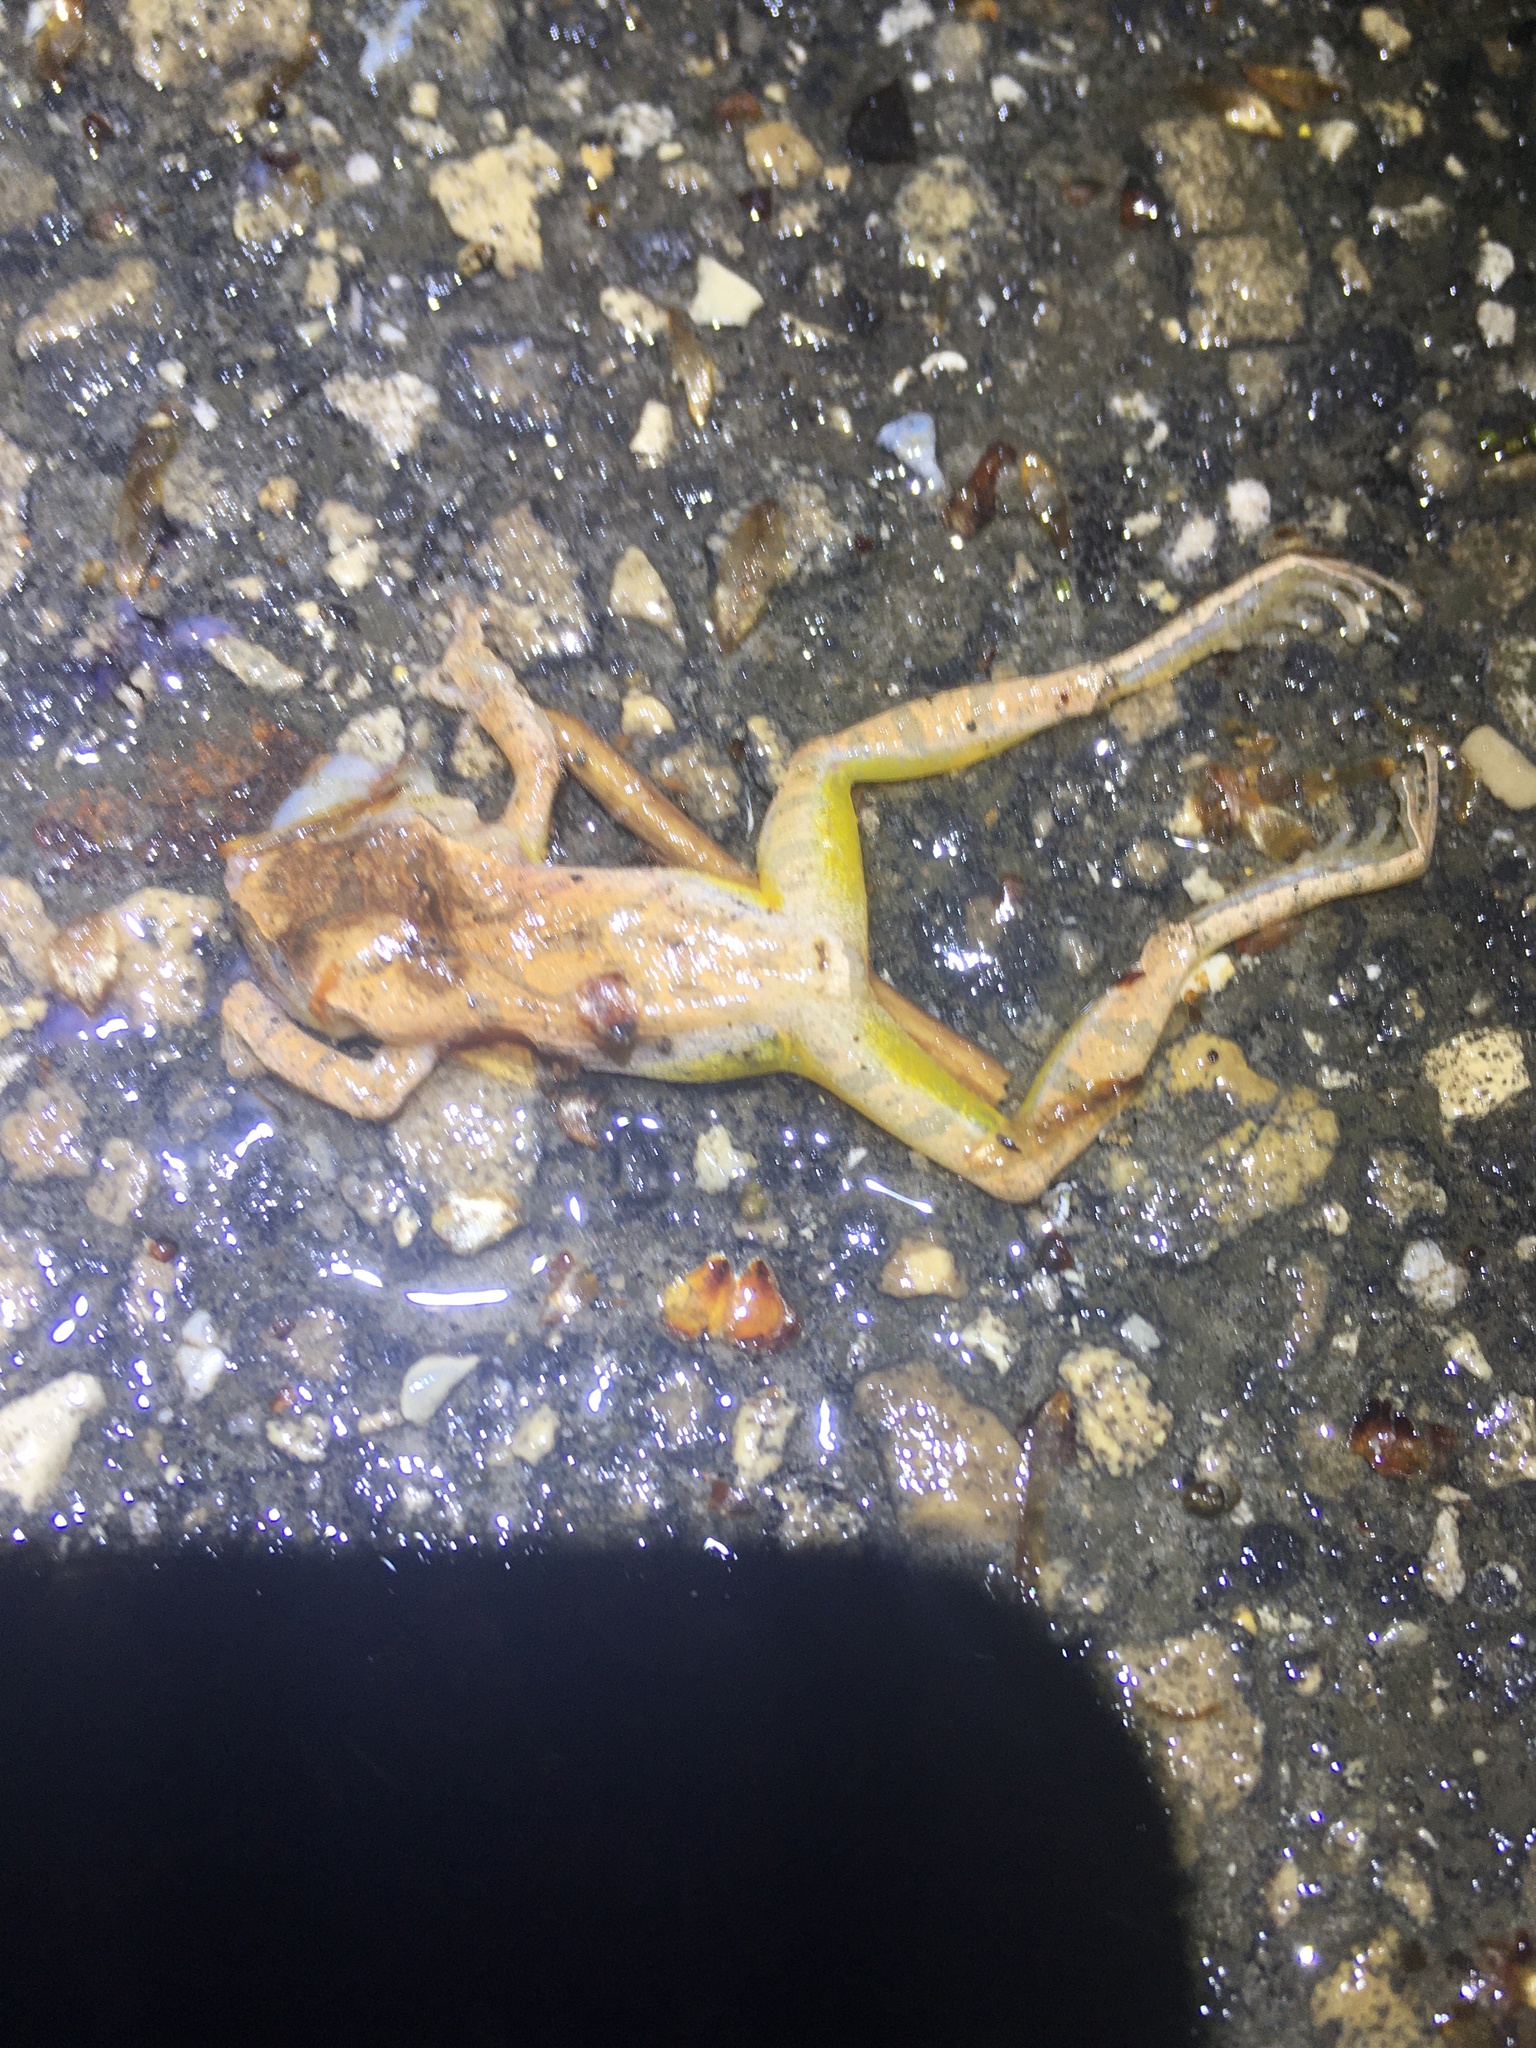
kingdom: Animalia
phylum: Chordata
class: Amphibia
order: Anura
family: Hylidae
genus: Pseudacris
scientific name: Pseudacris crucifer
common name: Spring peeper
